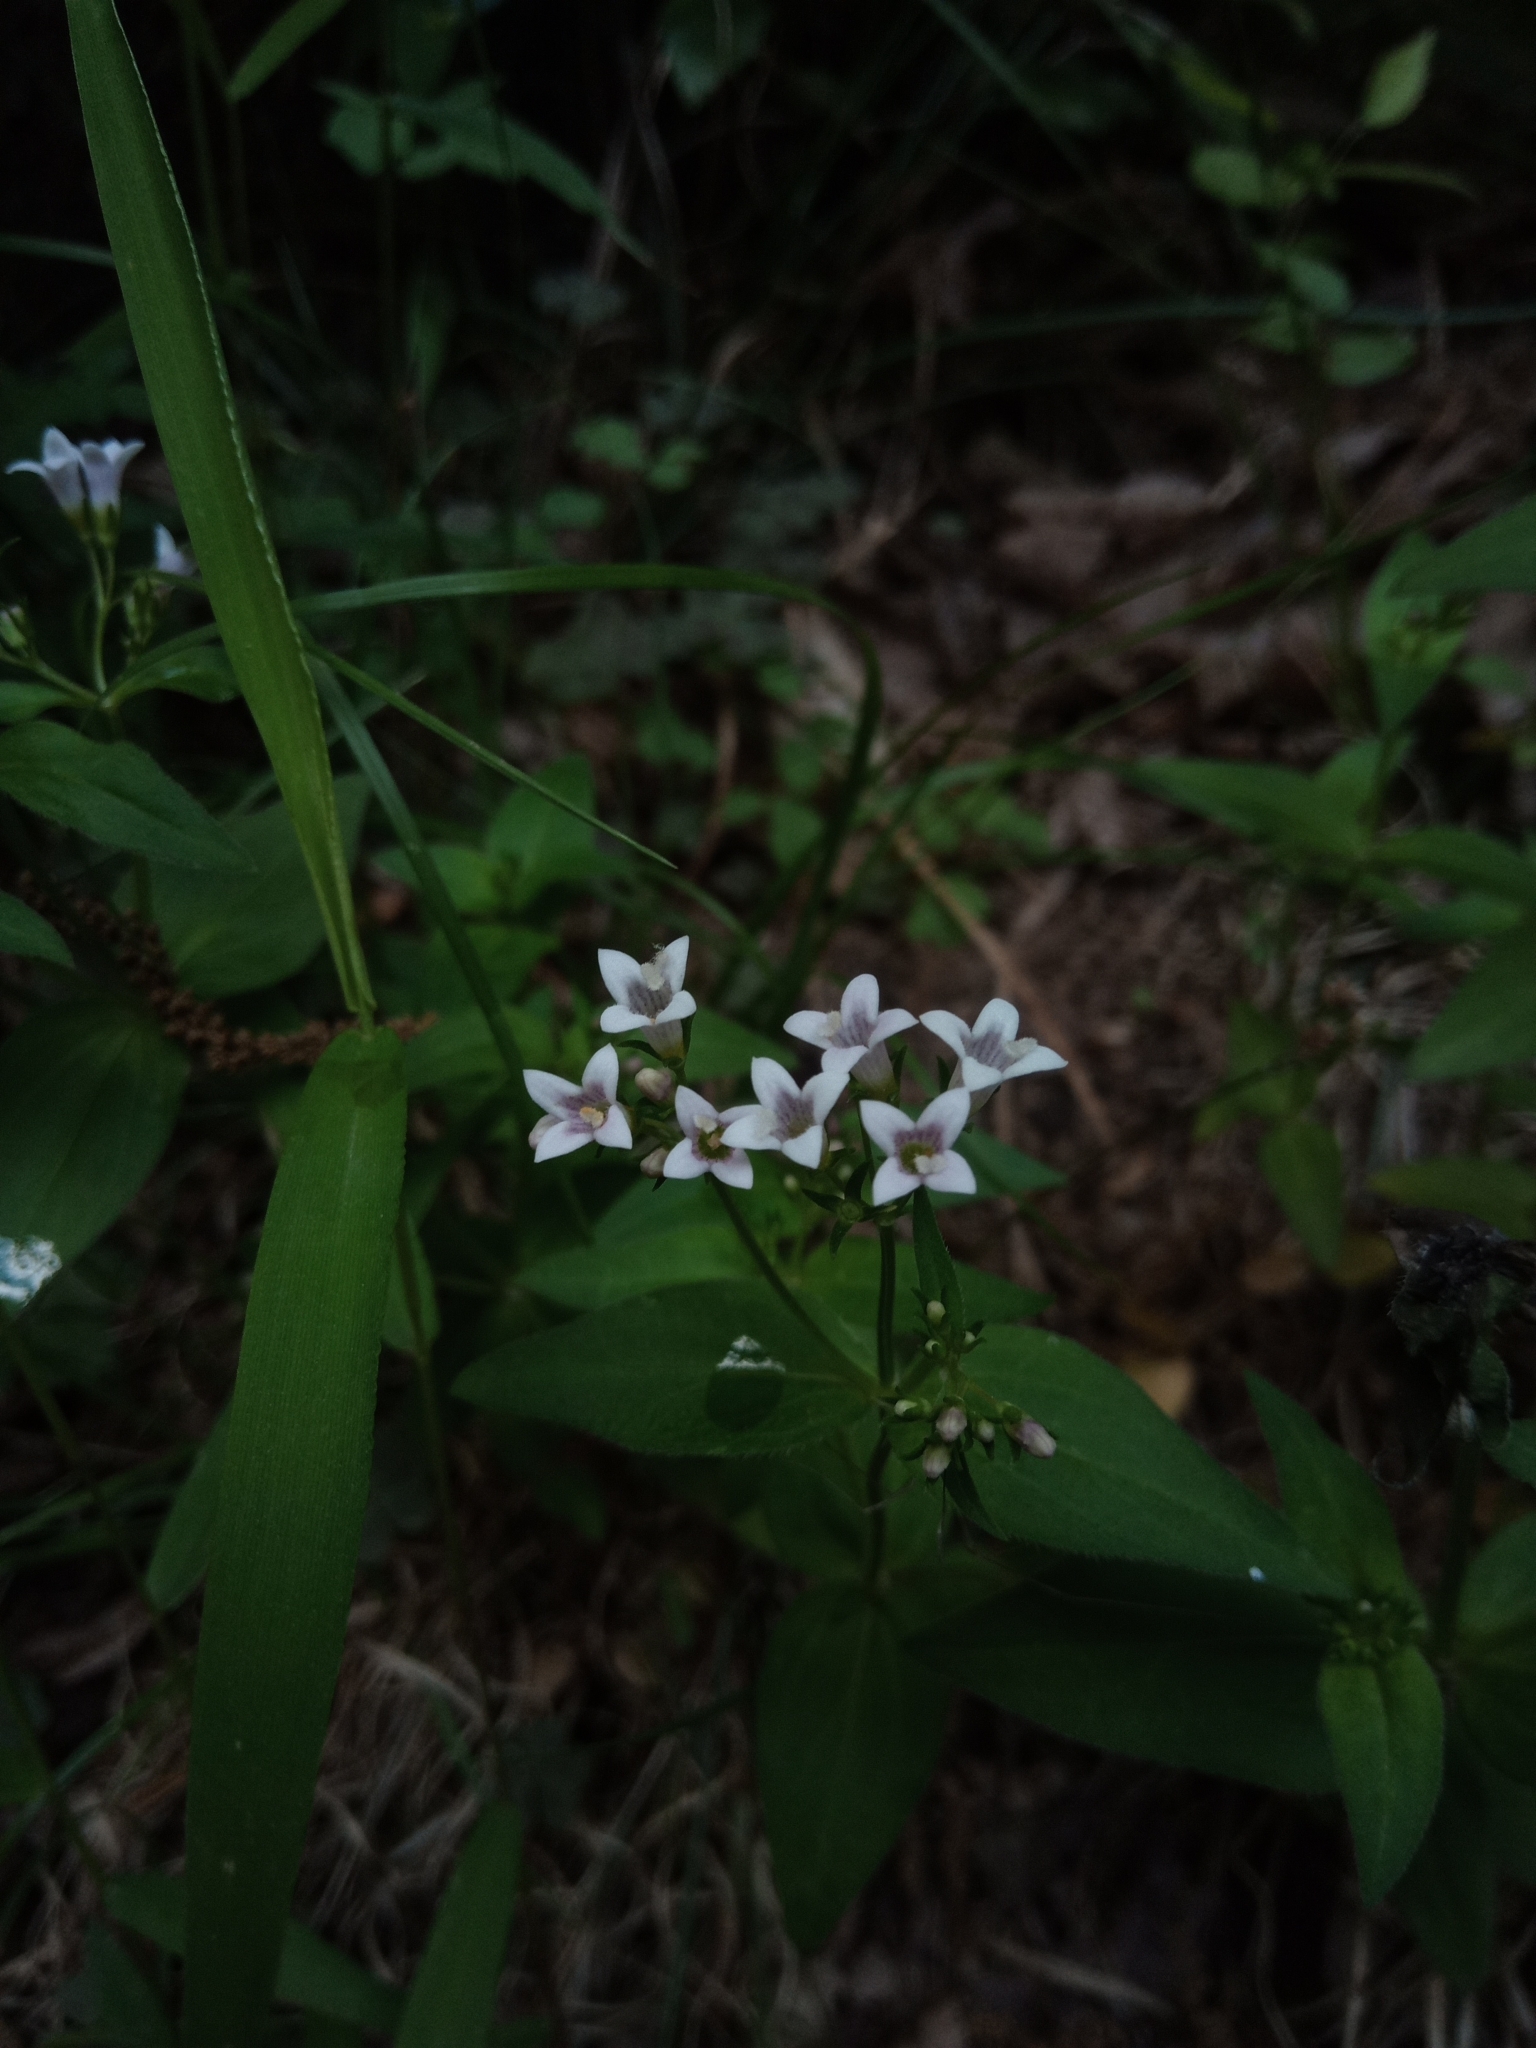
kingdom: Plantae
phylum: Tracheophyta
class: Magnoliopsida
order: Gentianales
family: Rubiaceae
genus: Houstonia
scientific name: Houstonia purpurea
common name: Summer bluet
